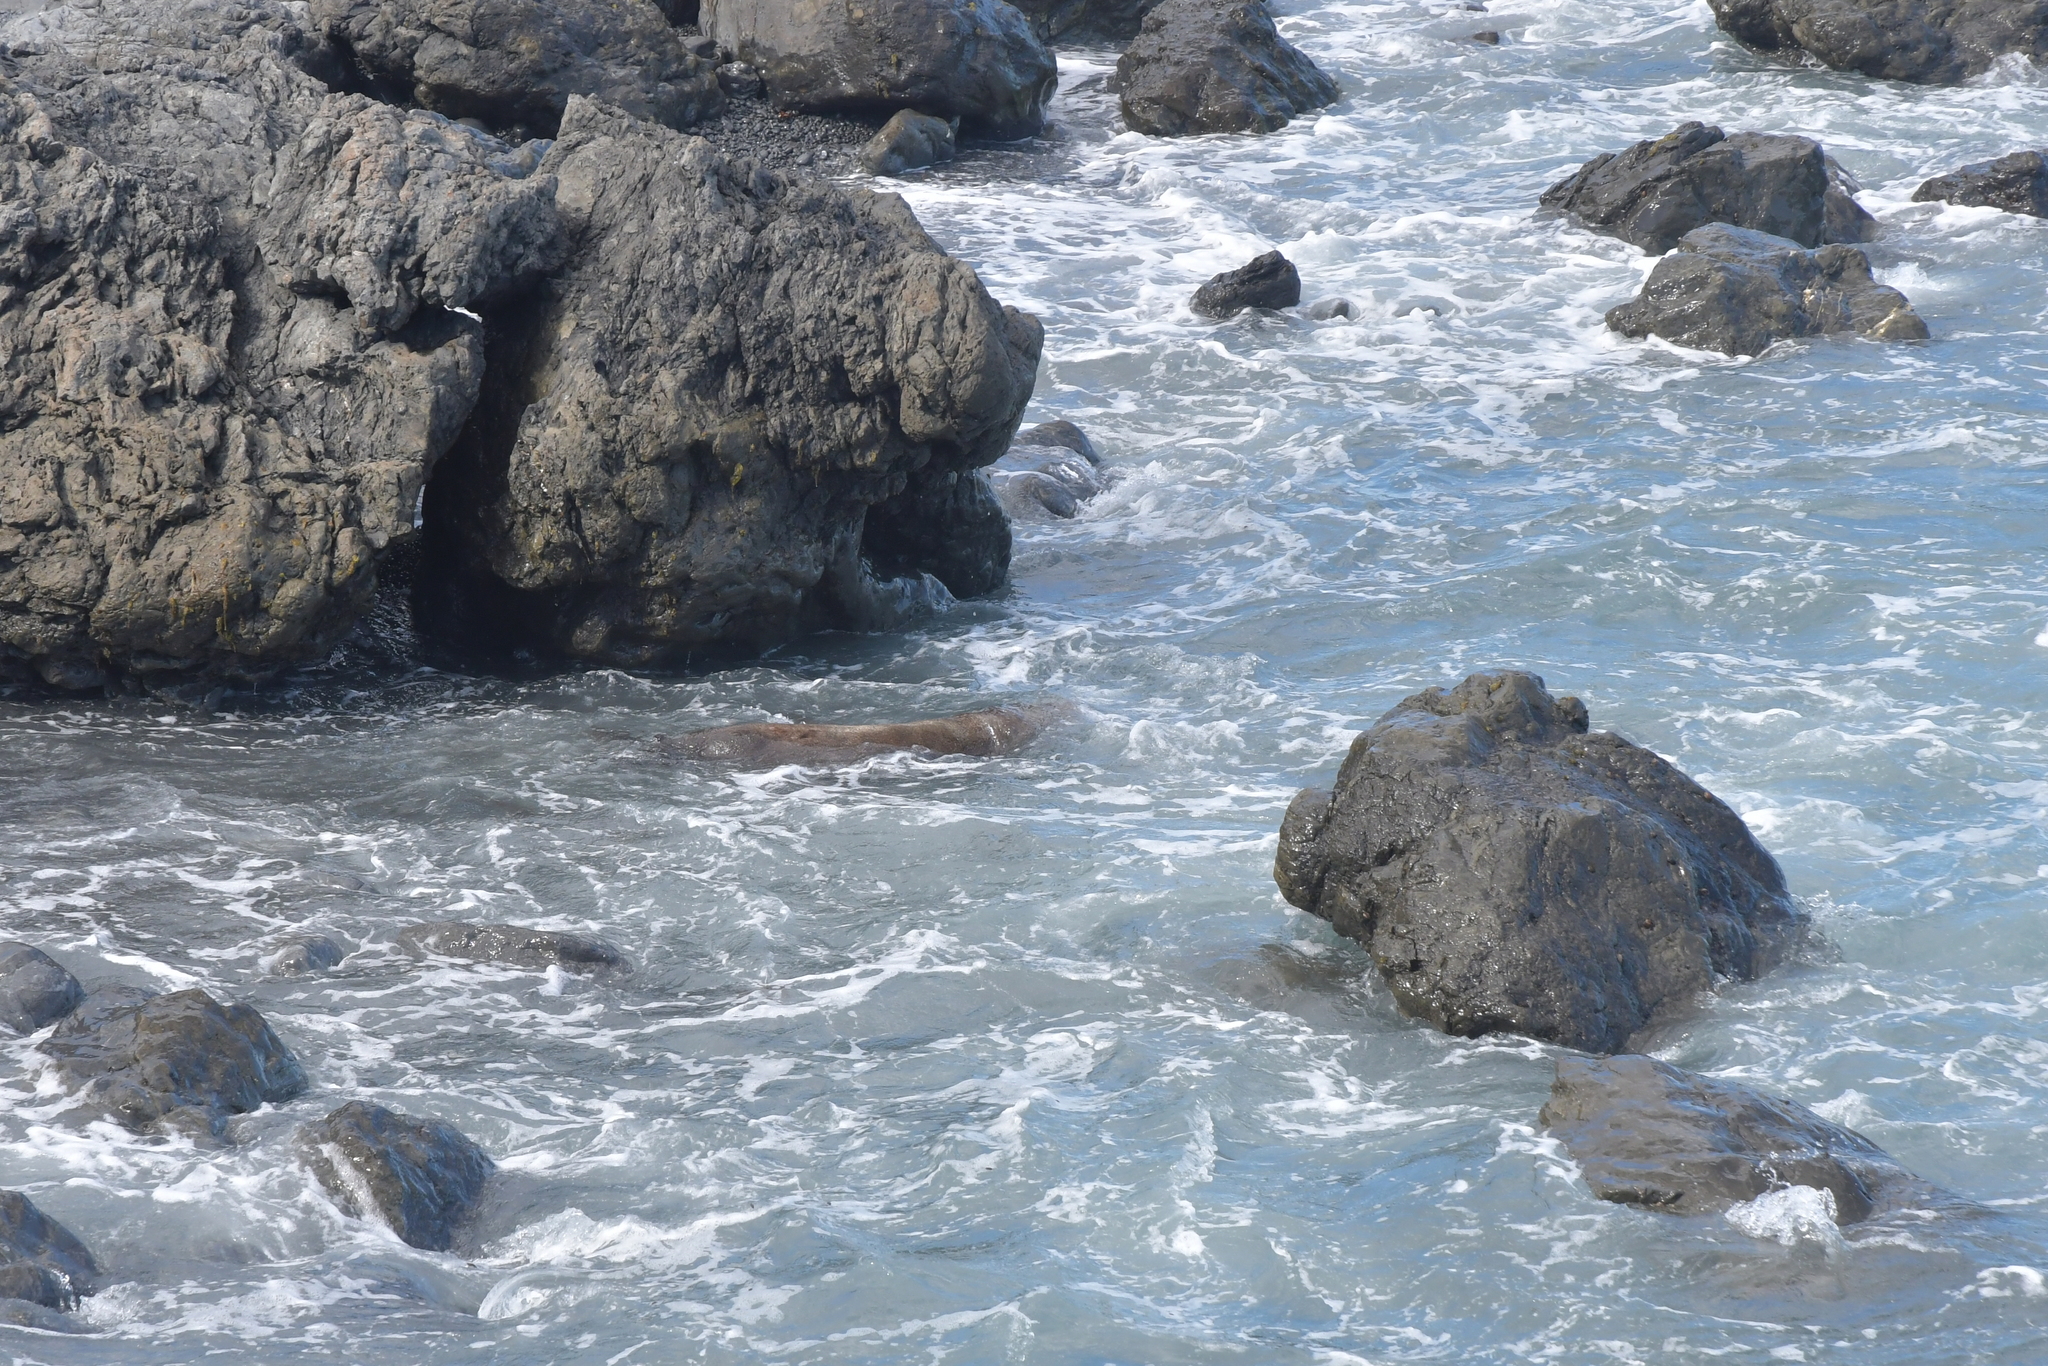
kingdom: Animalia
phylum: Chordata
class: Mammalia
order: Carnivora
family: Otariidae
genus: Arctocephalus
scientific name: Arctocephalus forsteri
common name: New zealand fur seal
